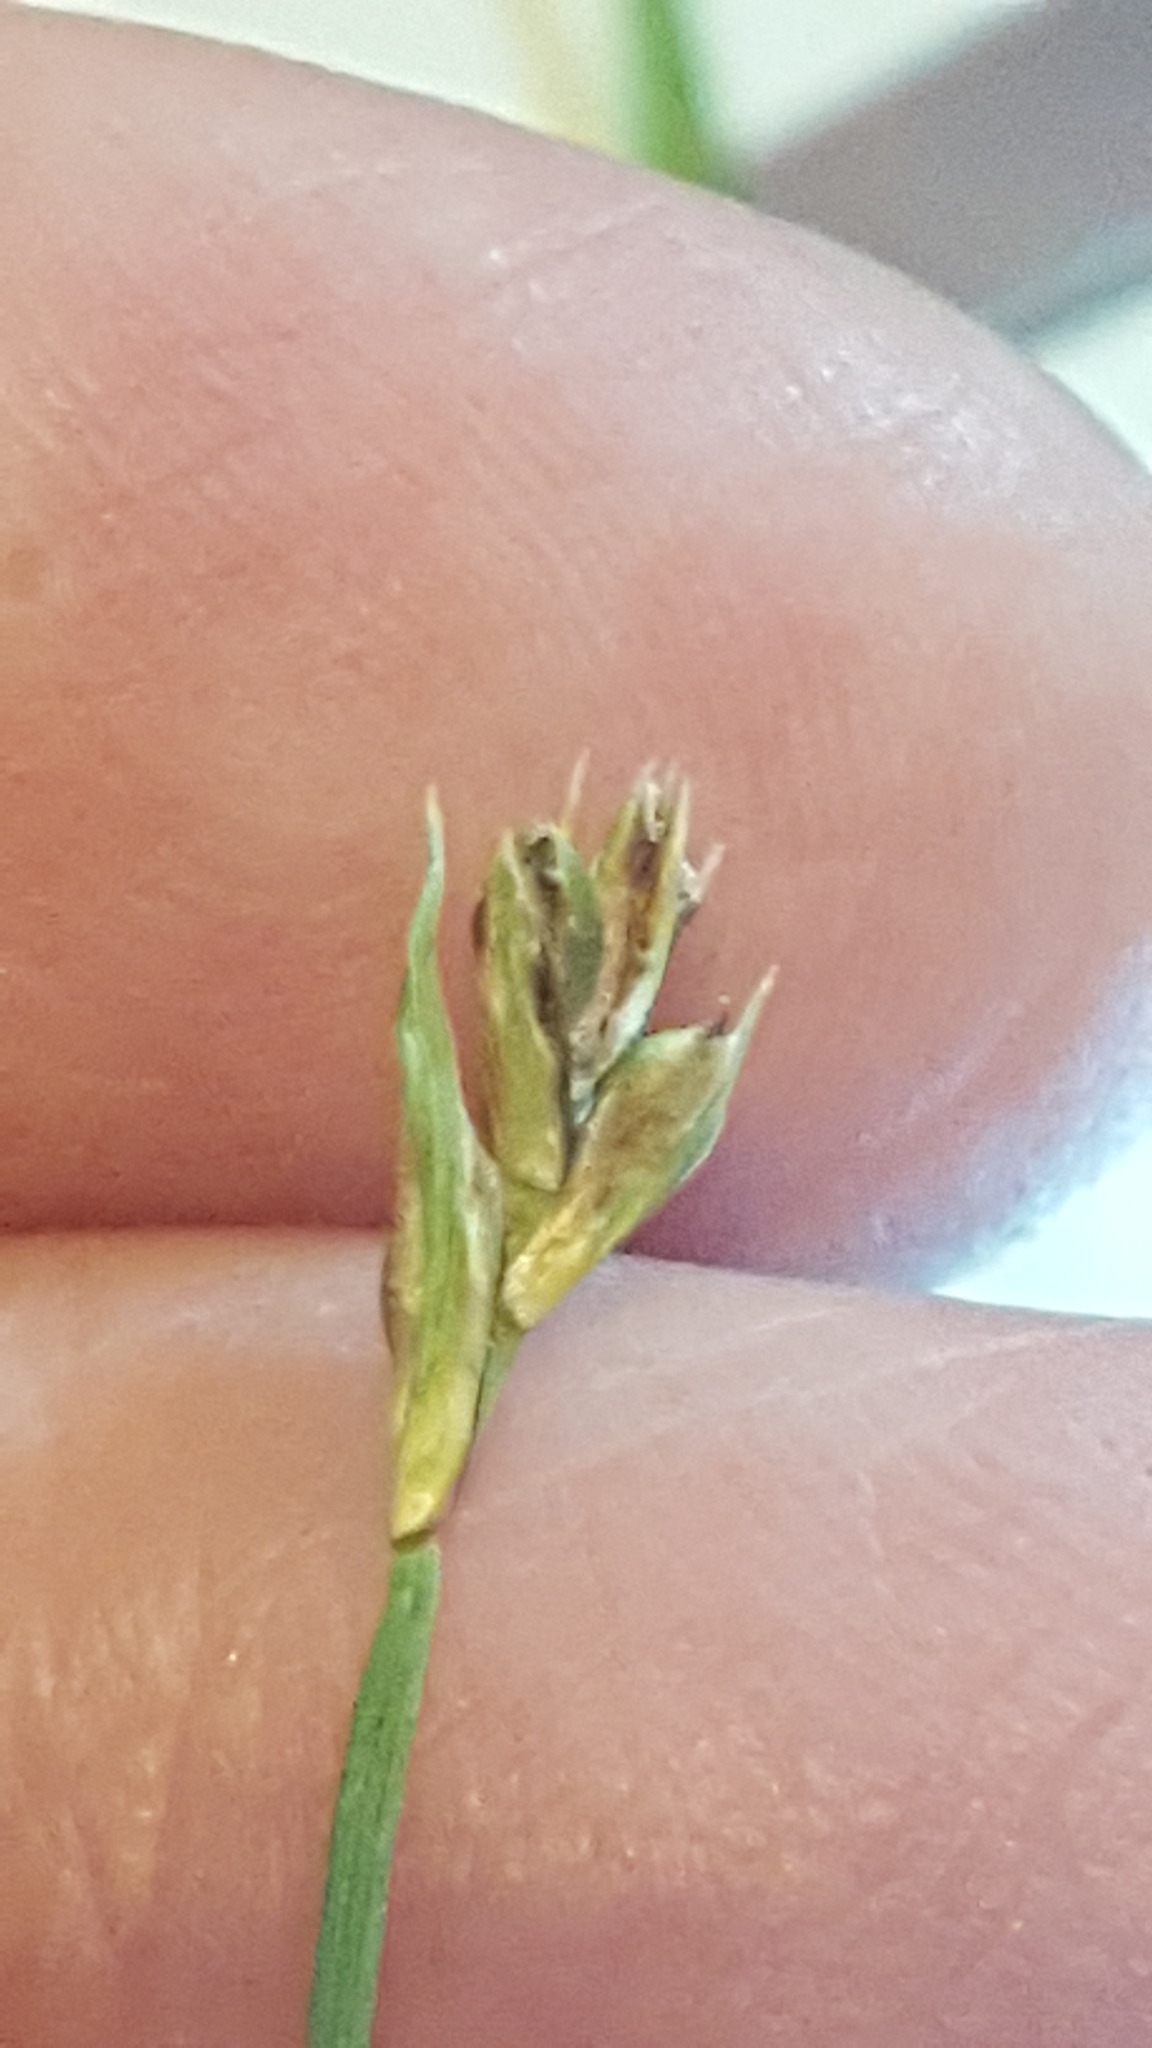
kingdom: Plantae
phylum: Tracheophyta
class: Liliopsida
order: Poales
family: Cyperaceae
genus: Carex
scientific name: Carex tonsa
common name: Bald sedge
